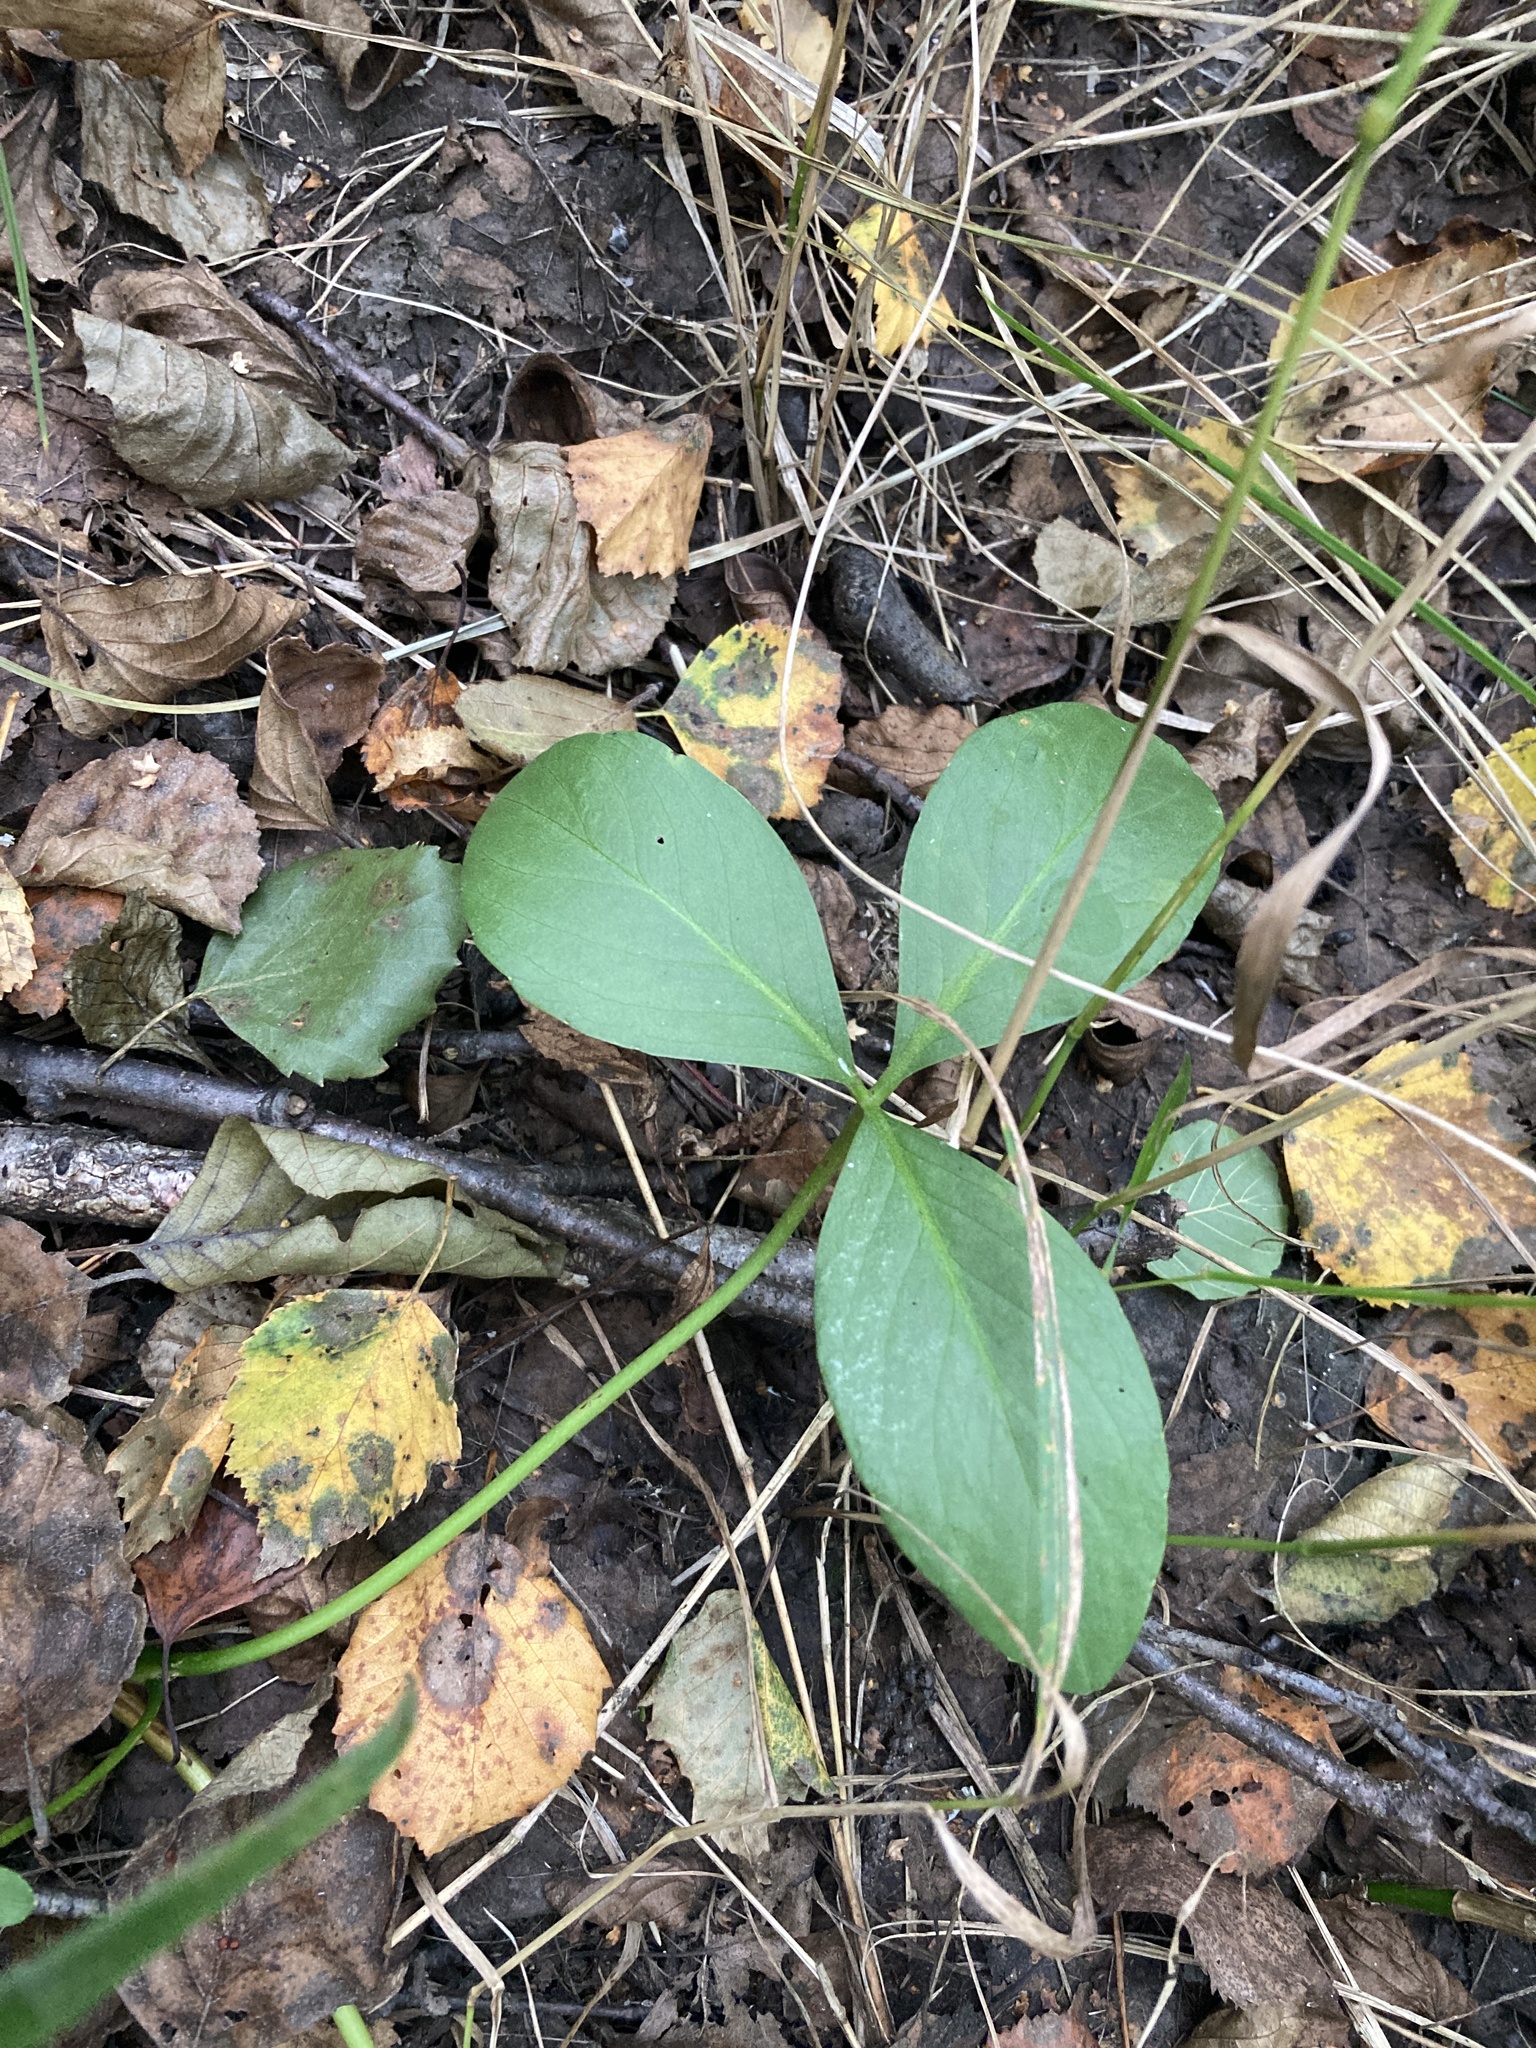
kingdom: Plantae
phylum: Tracheophyta
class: Magnoliopsida
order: Asterales
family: Menyanthaceae
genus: Menyanthes
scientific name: Menyanthes trifoliata
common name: Bogbean
